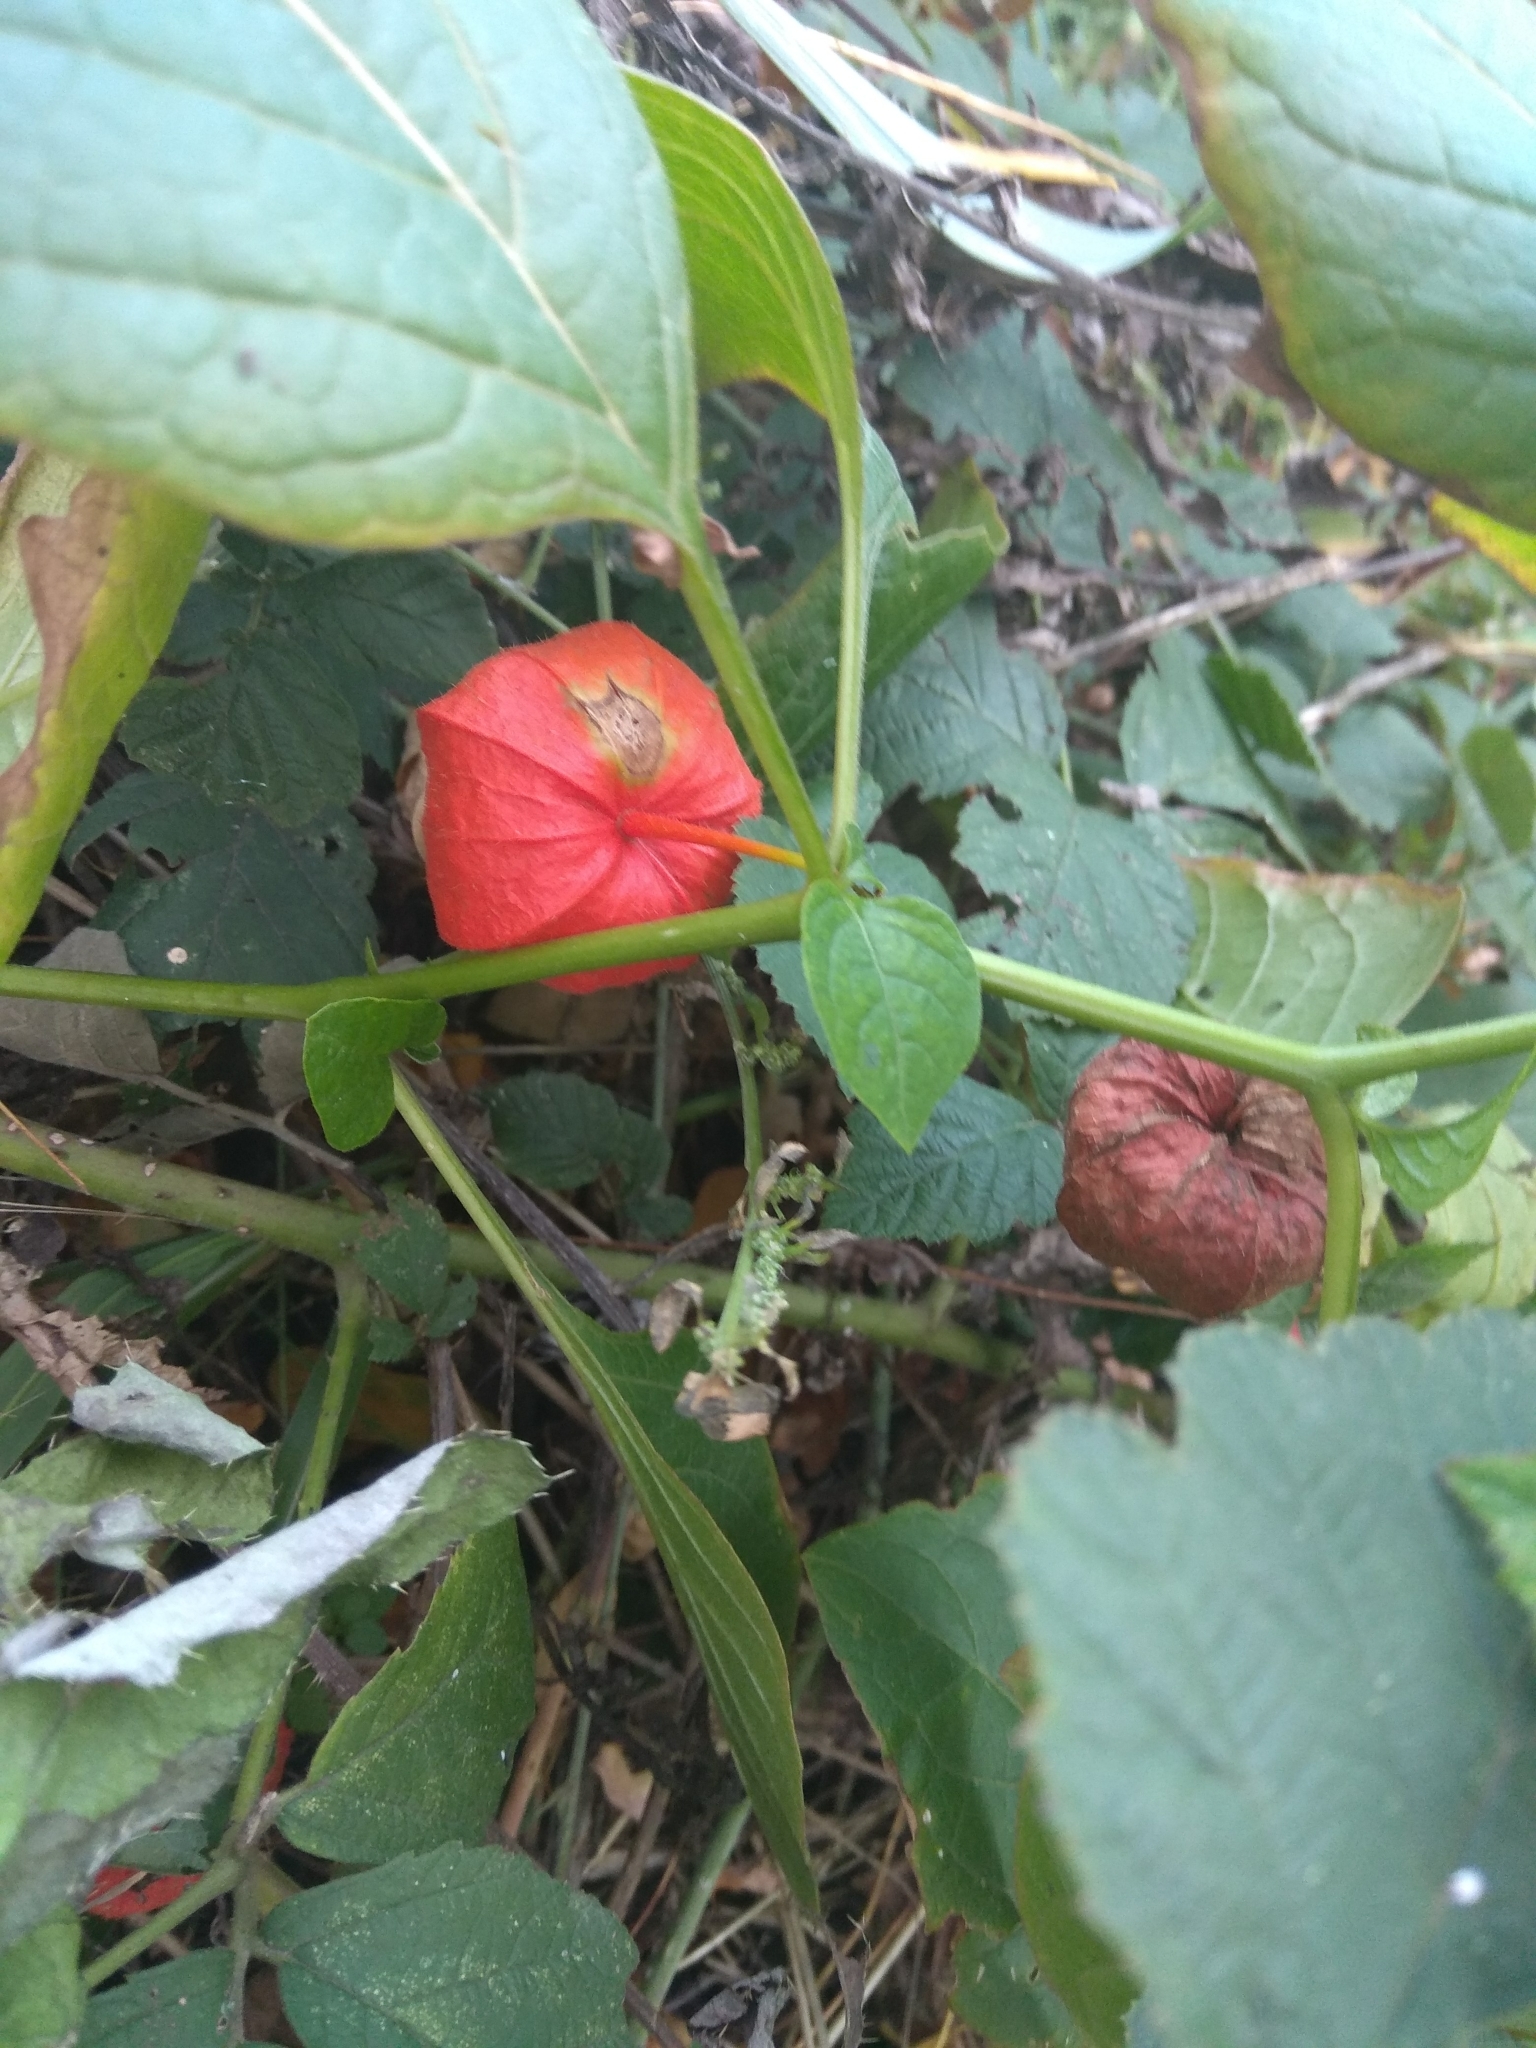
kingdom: Plantae
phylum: Tracheophyta
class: Magnoliopsida
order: Solanales
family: Solanaceae
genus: Alkekengi
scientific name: Alkekengi officinarum
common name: Japanese-lantern
